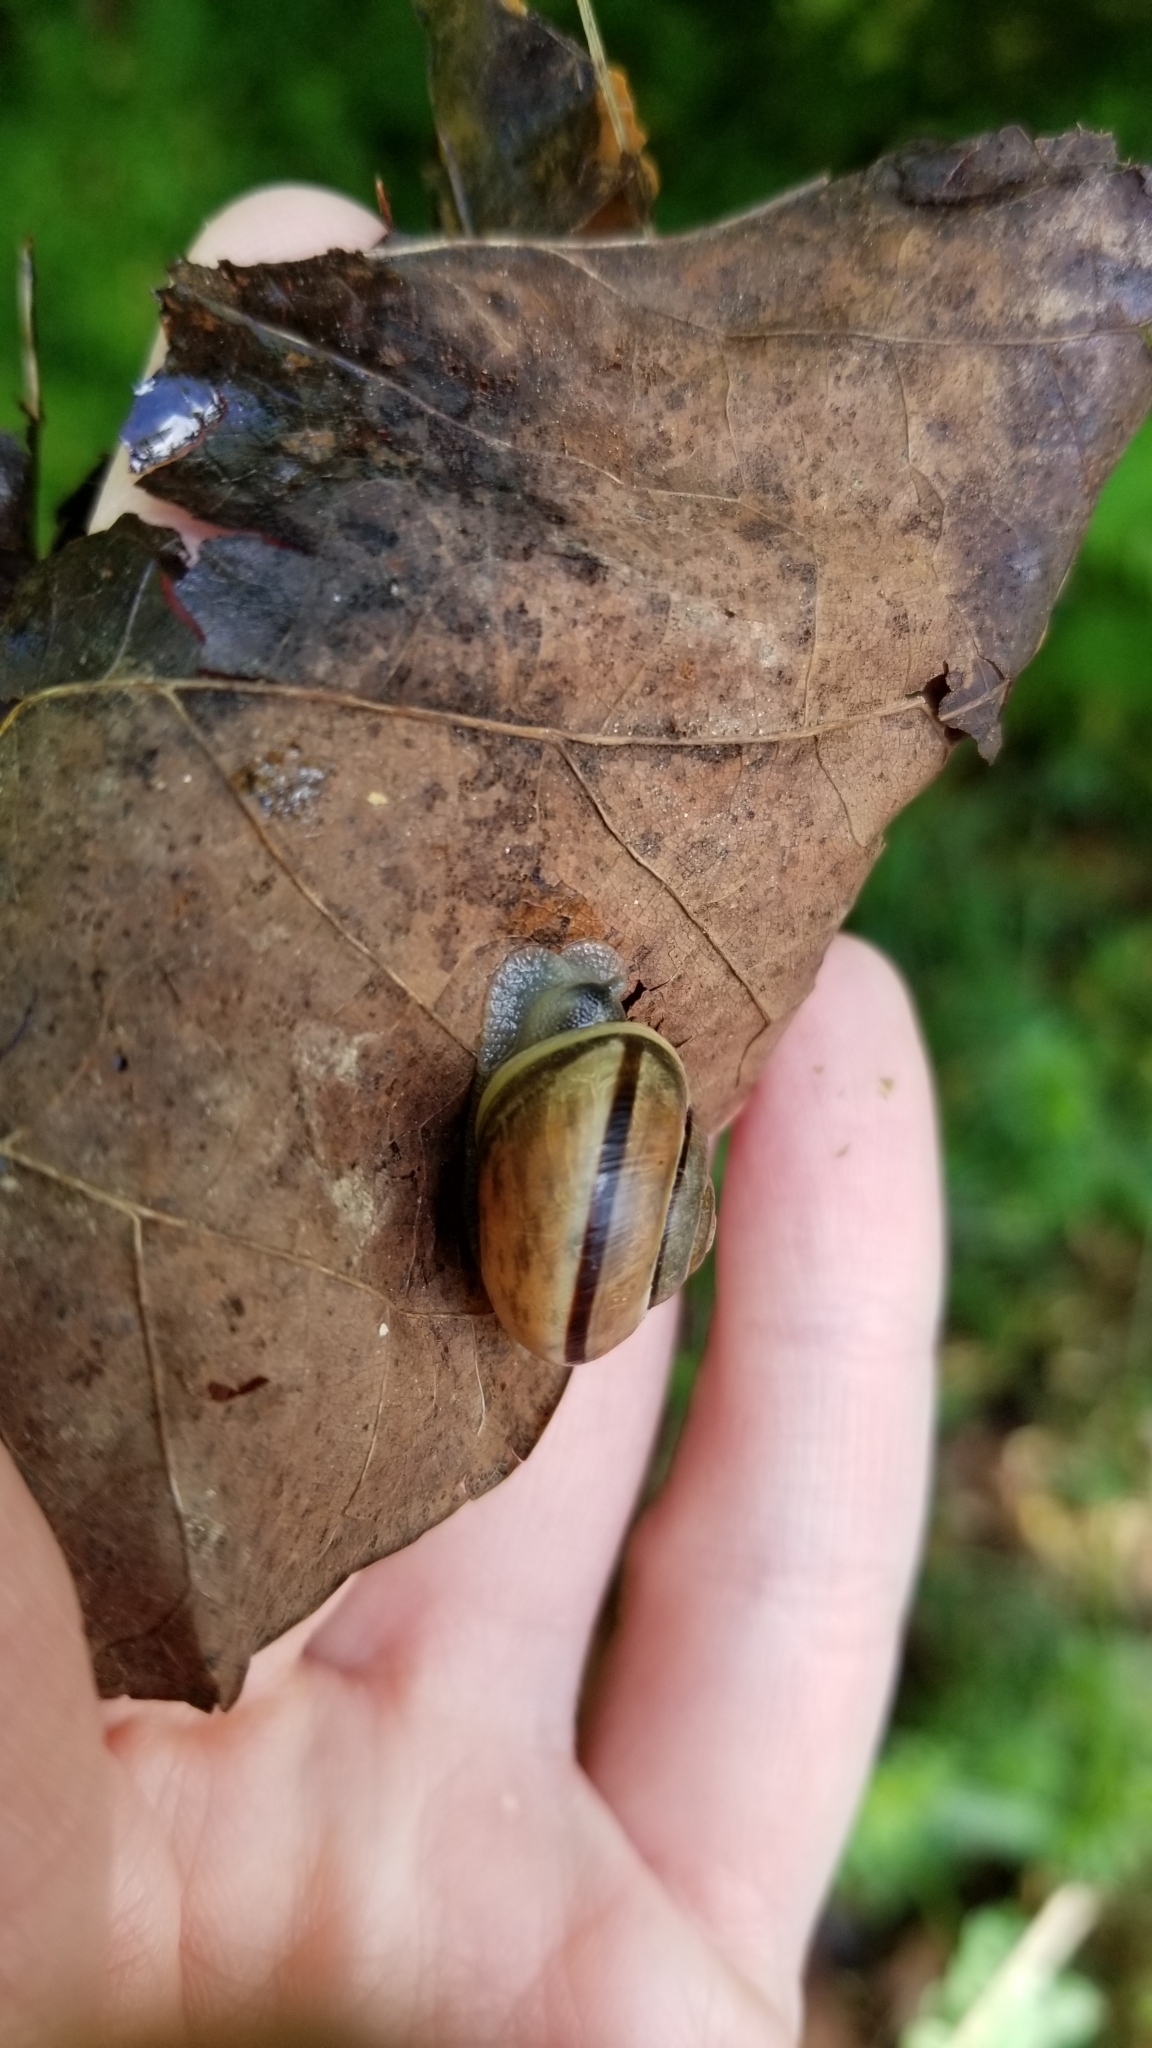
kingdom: Animalia
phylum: Mollusca
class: Gastropoda
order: Stylommatophora
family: Helicidae
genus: Cepaea
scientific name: Cepaea nemoralis
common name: Grovesnail
